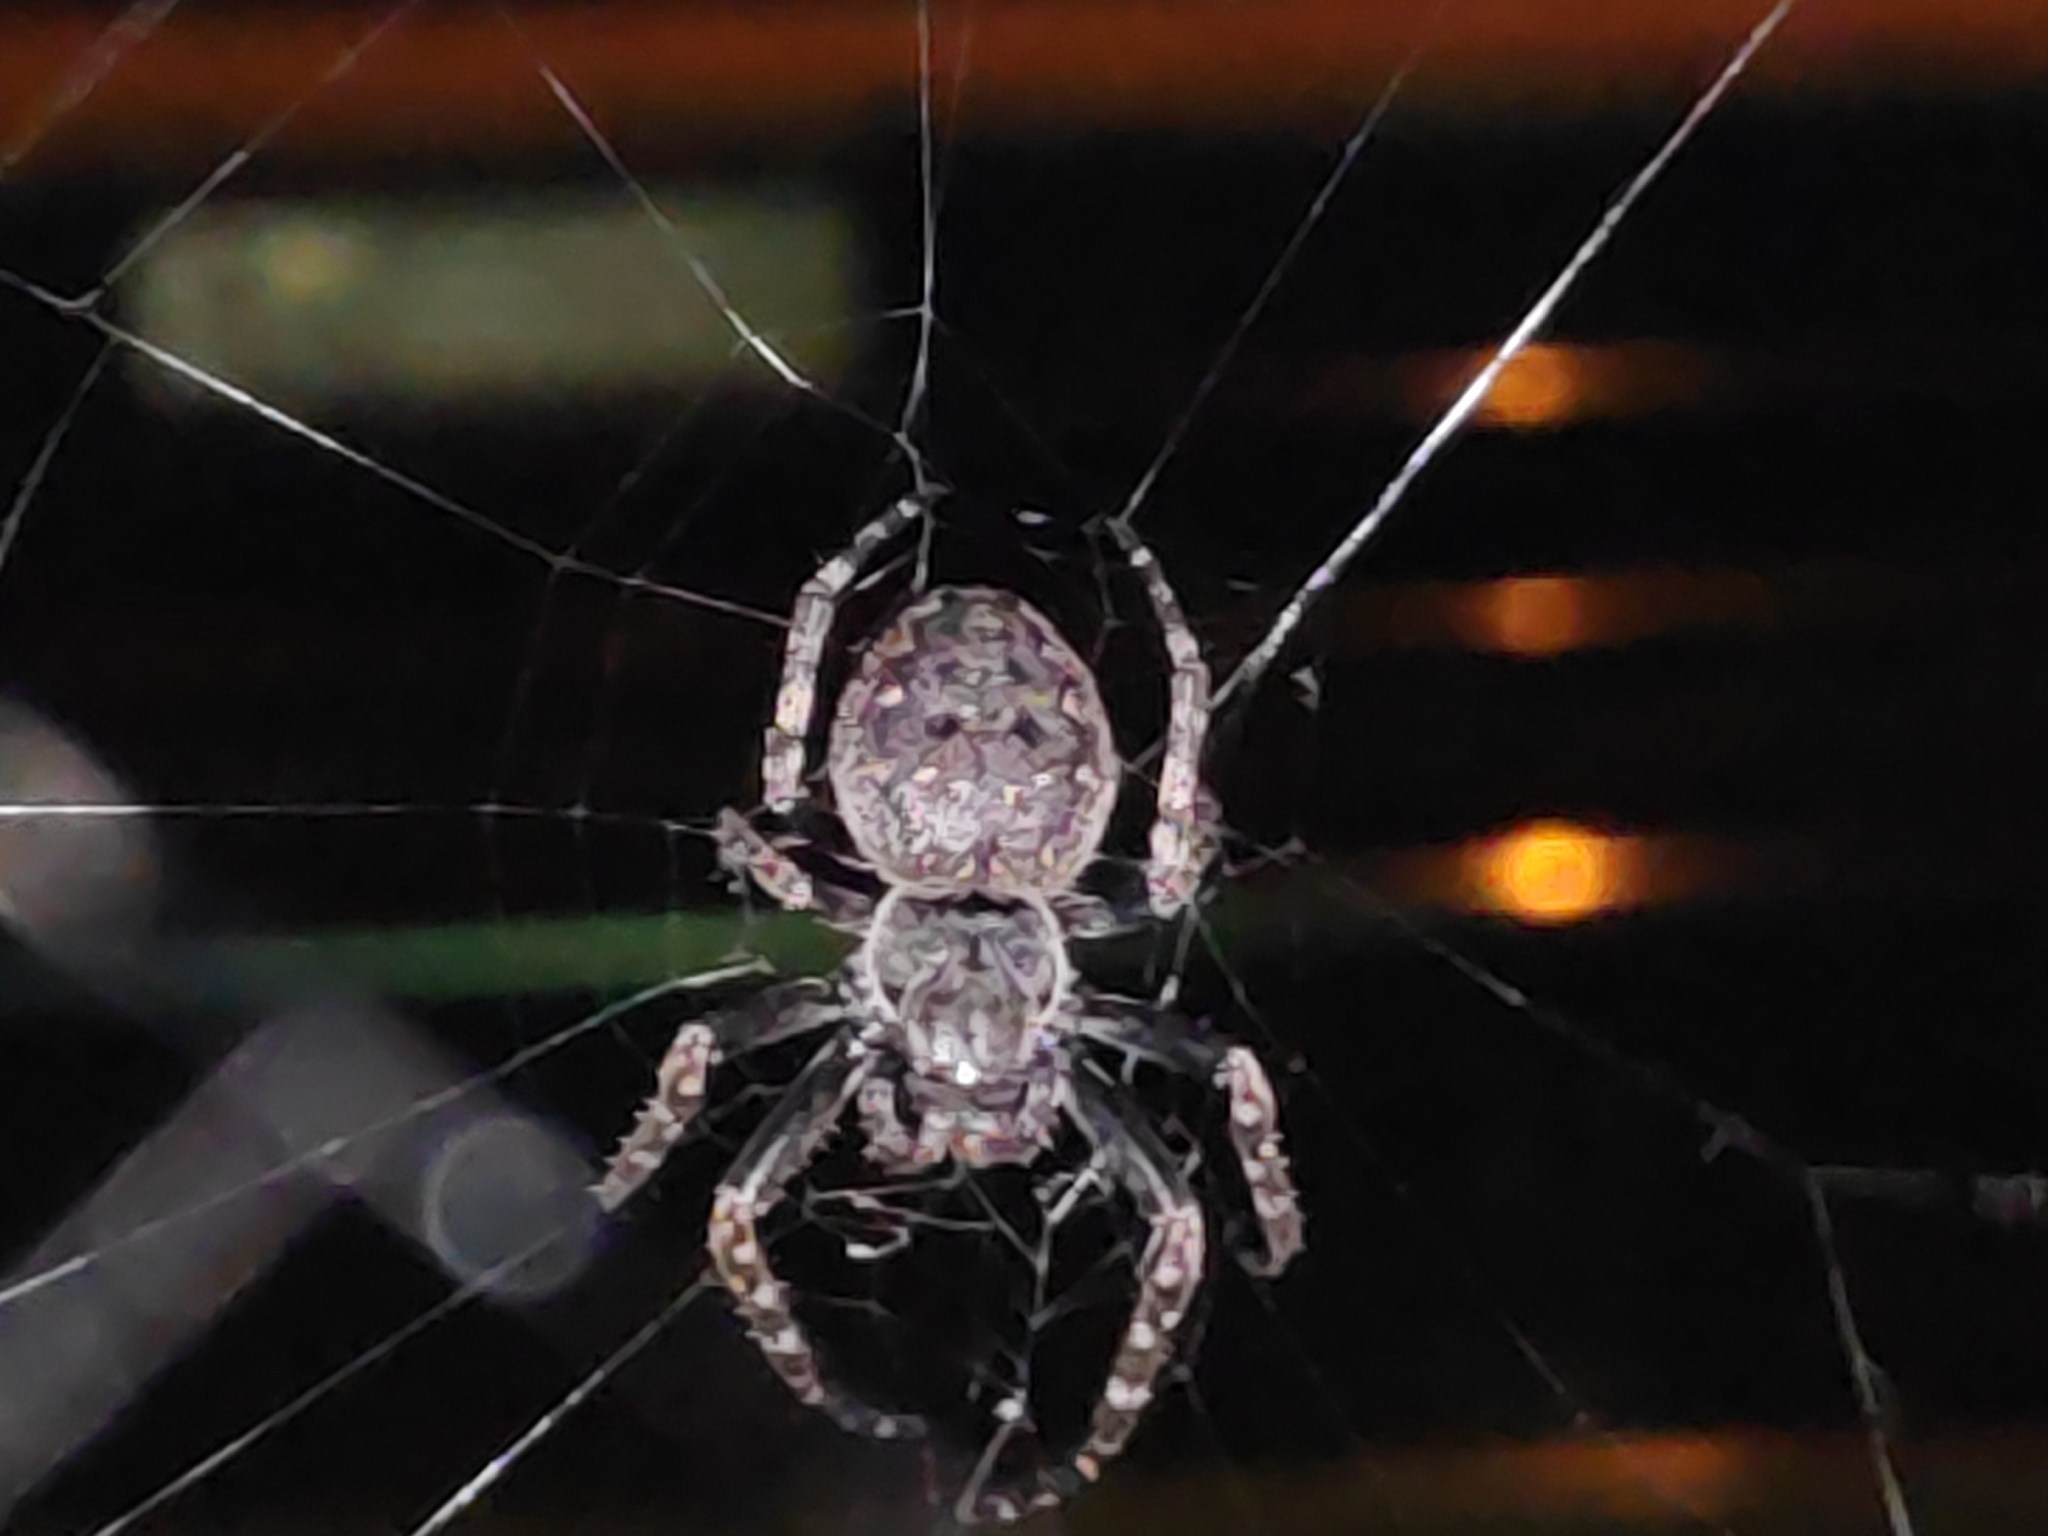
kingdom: Animalia
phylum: Arthropoda
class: Arachnida
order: Araneae
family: Araneidae
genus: Nuctenea
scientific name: Nuctenea umbratica
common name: Toad spider
